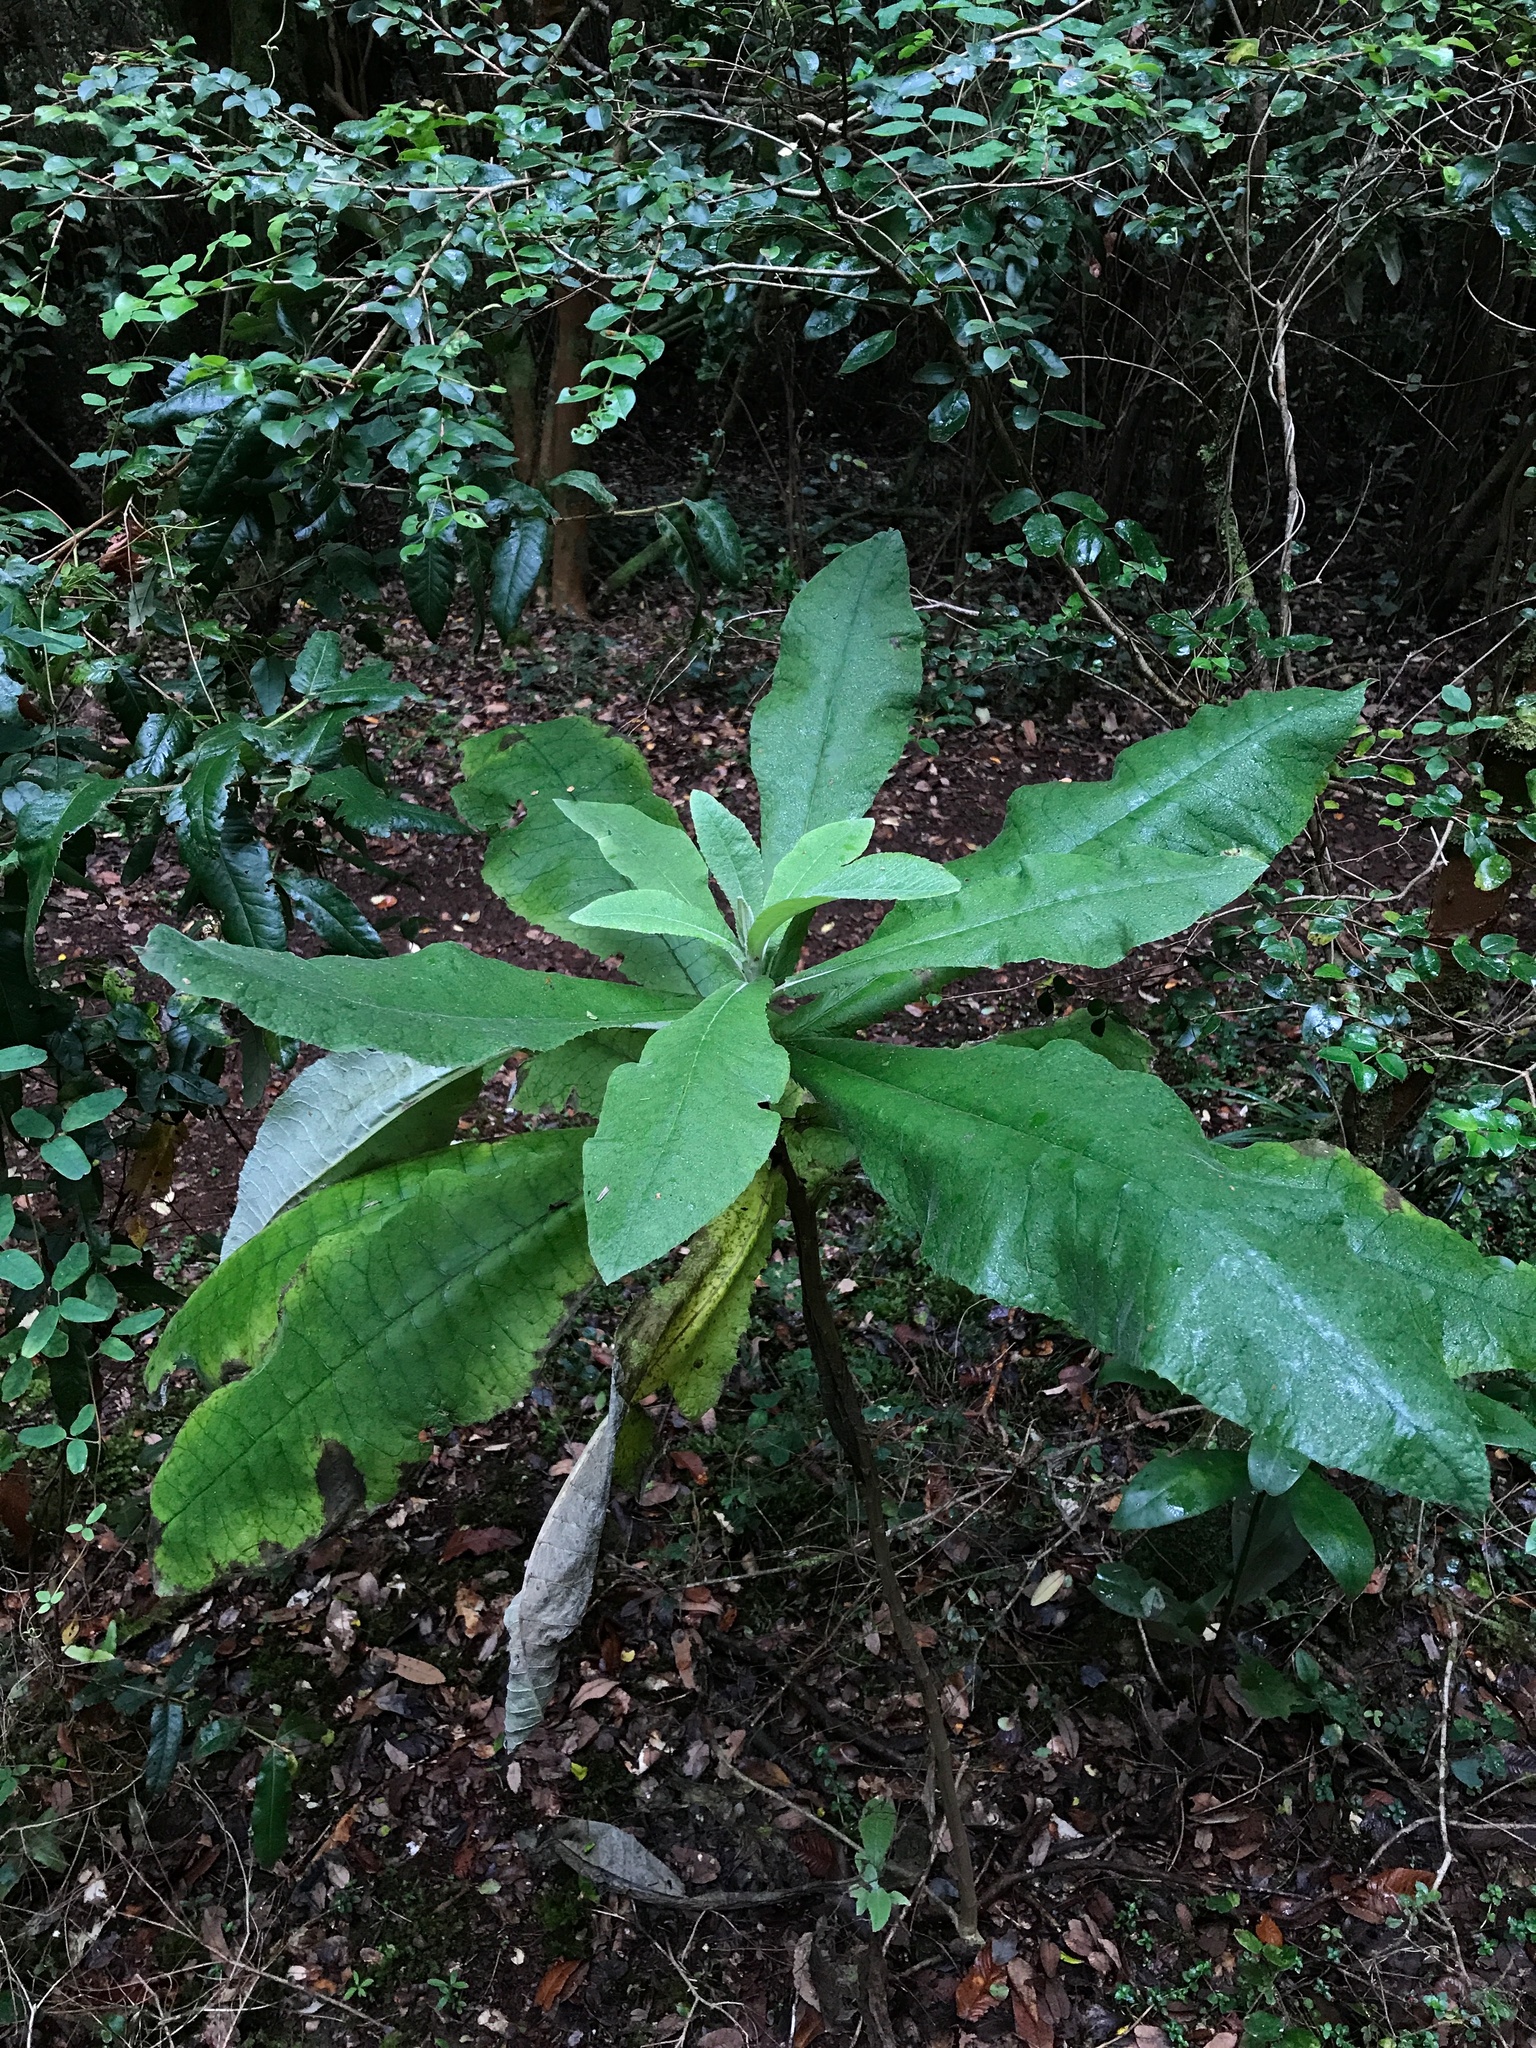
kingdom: Plantae
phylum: Tracheophyta
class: Magnoliopsida
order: Asterales
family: Asteraceae
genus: Acrisione
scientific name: Acrisione cymosa
